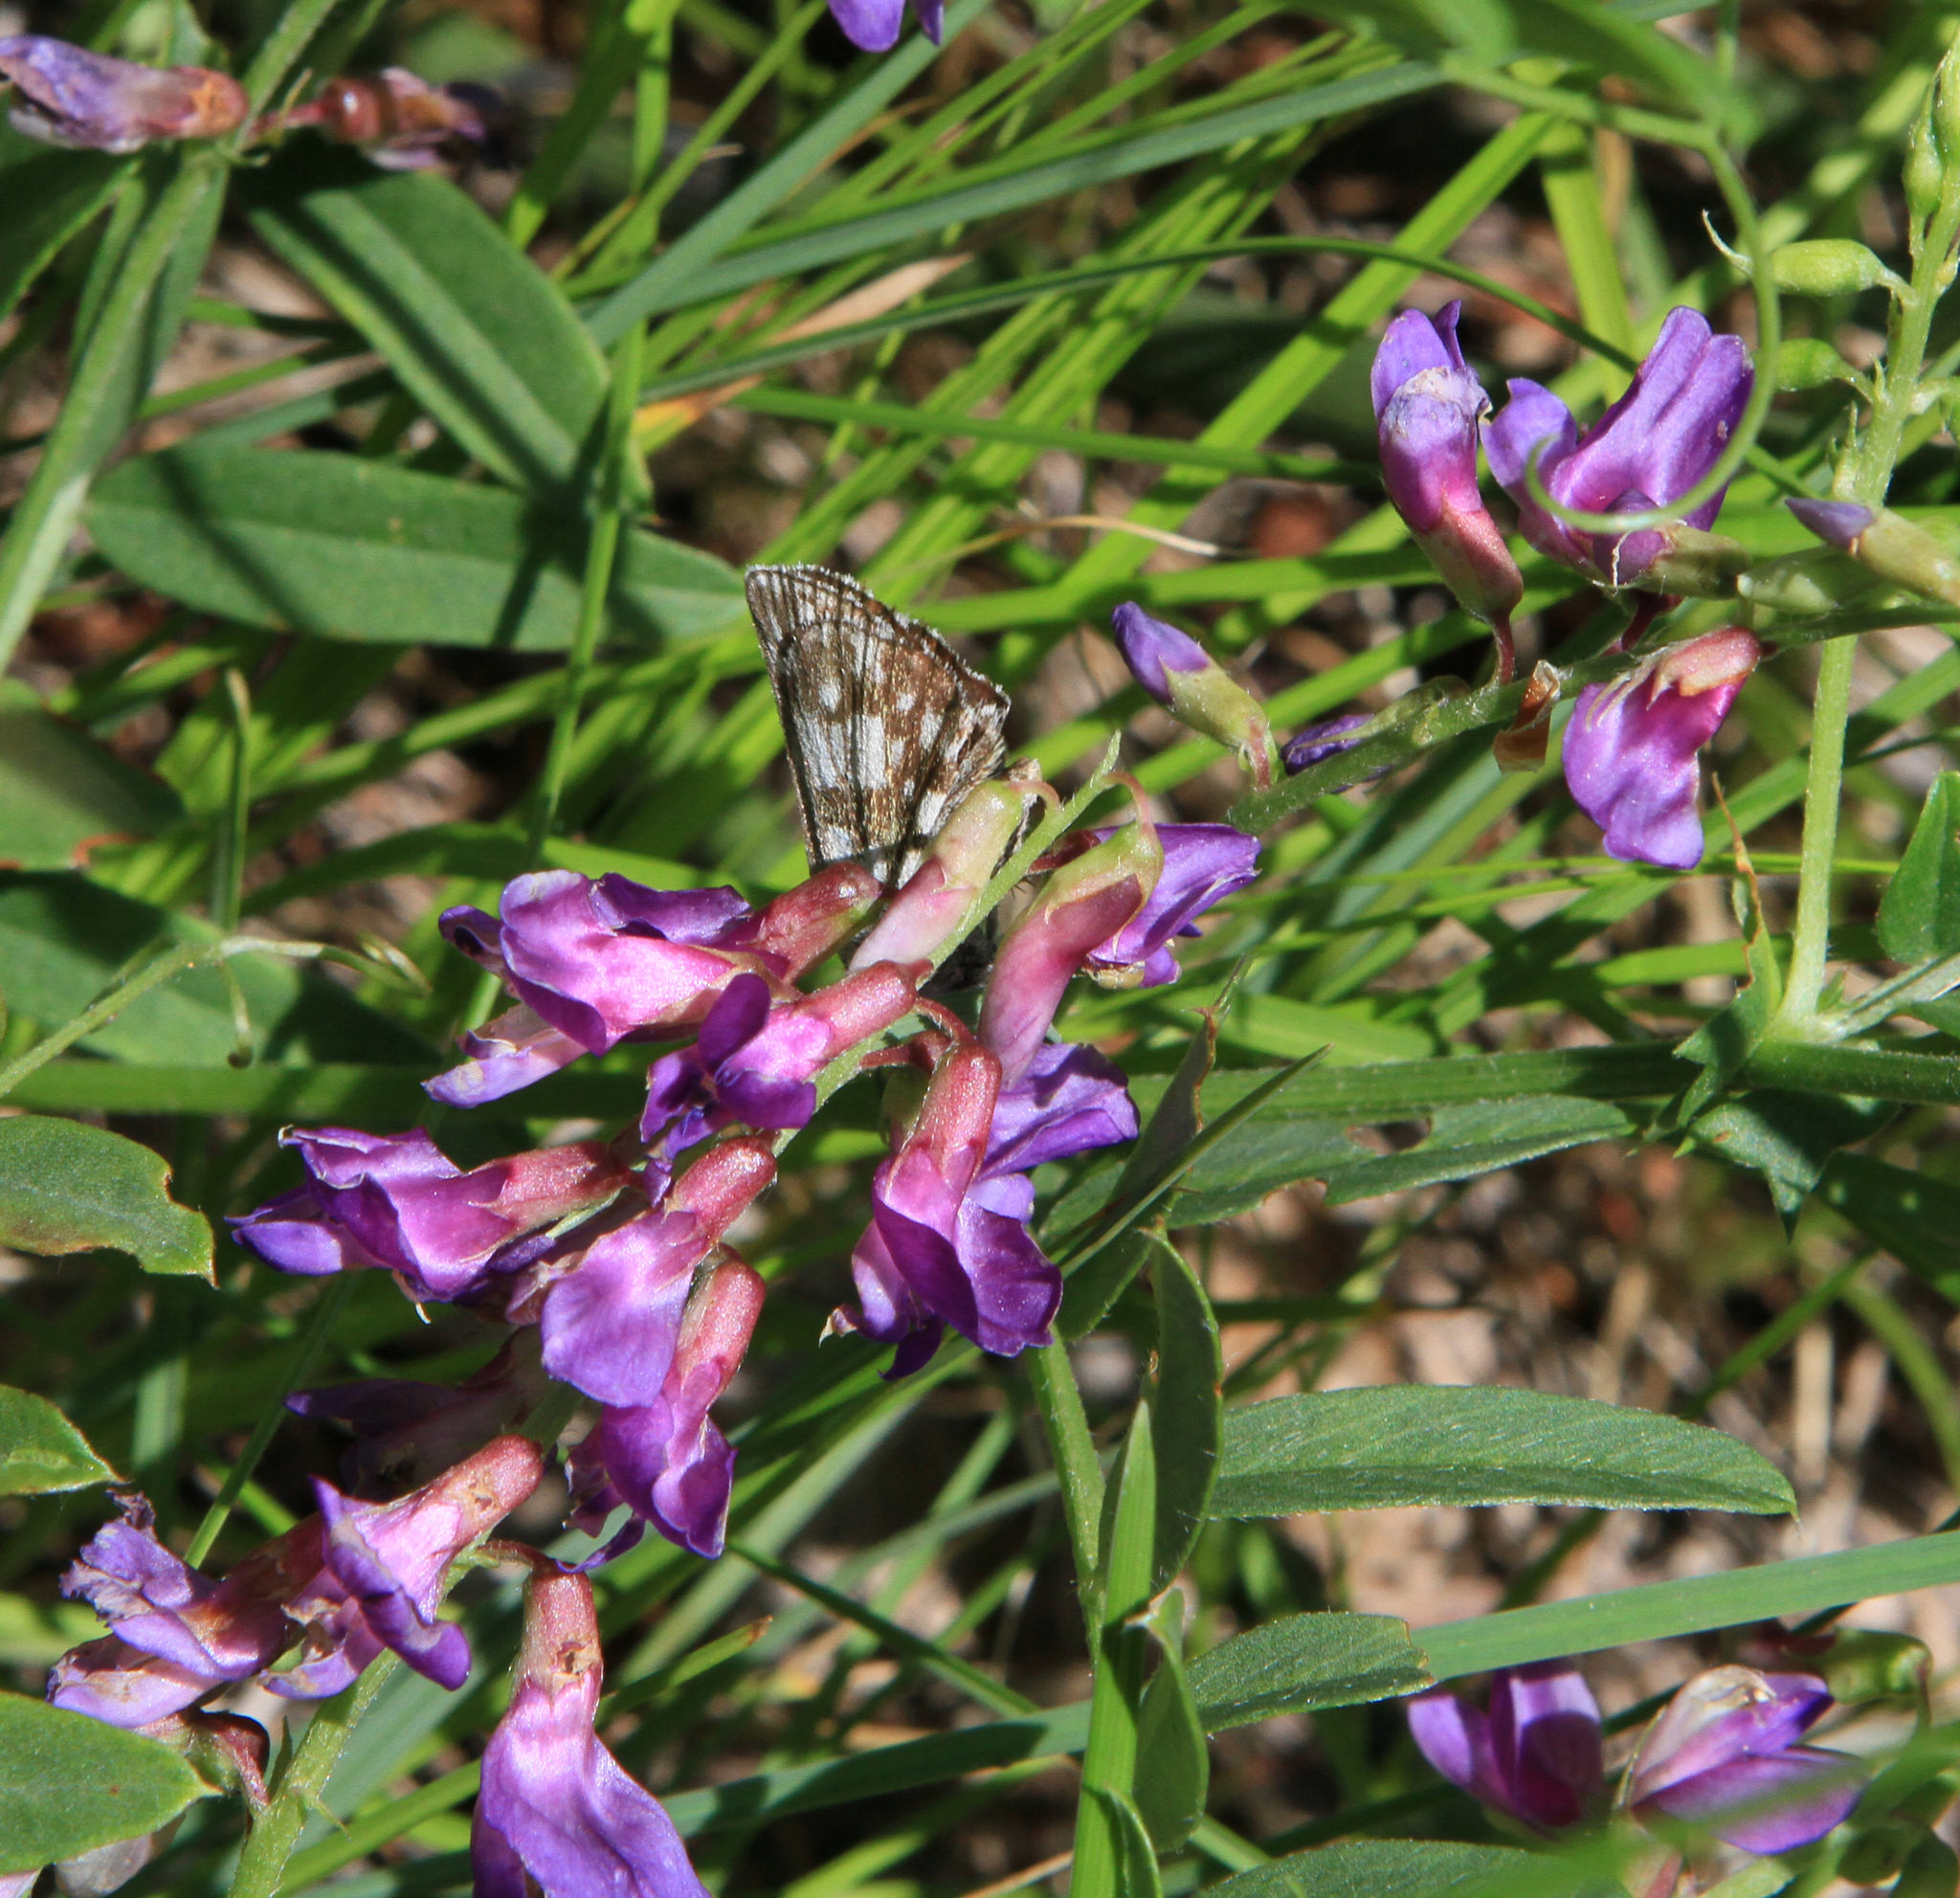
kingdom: Plantae
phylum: Tracheophyta
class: Magnoliopsida
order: Fabales
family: Fabaceae
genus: Vicia
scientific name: Vicia amoena
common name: Cheder ebs
